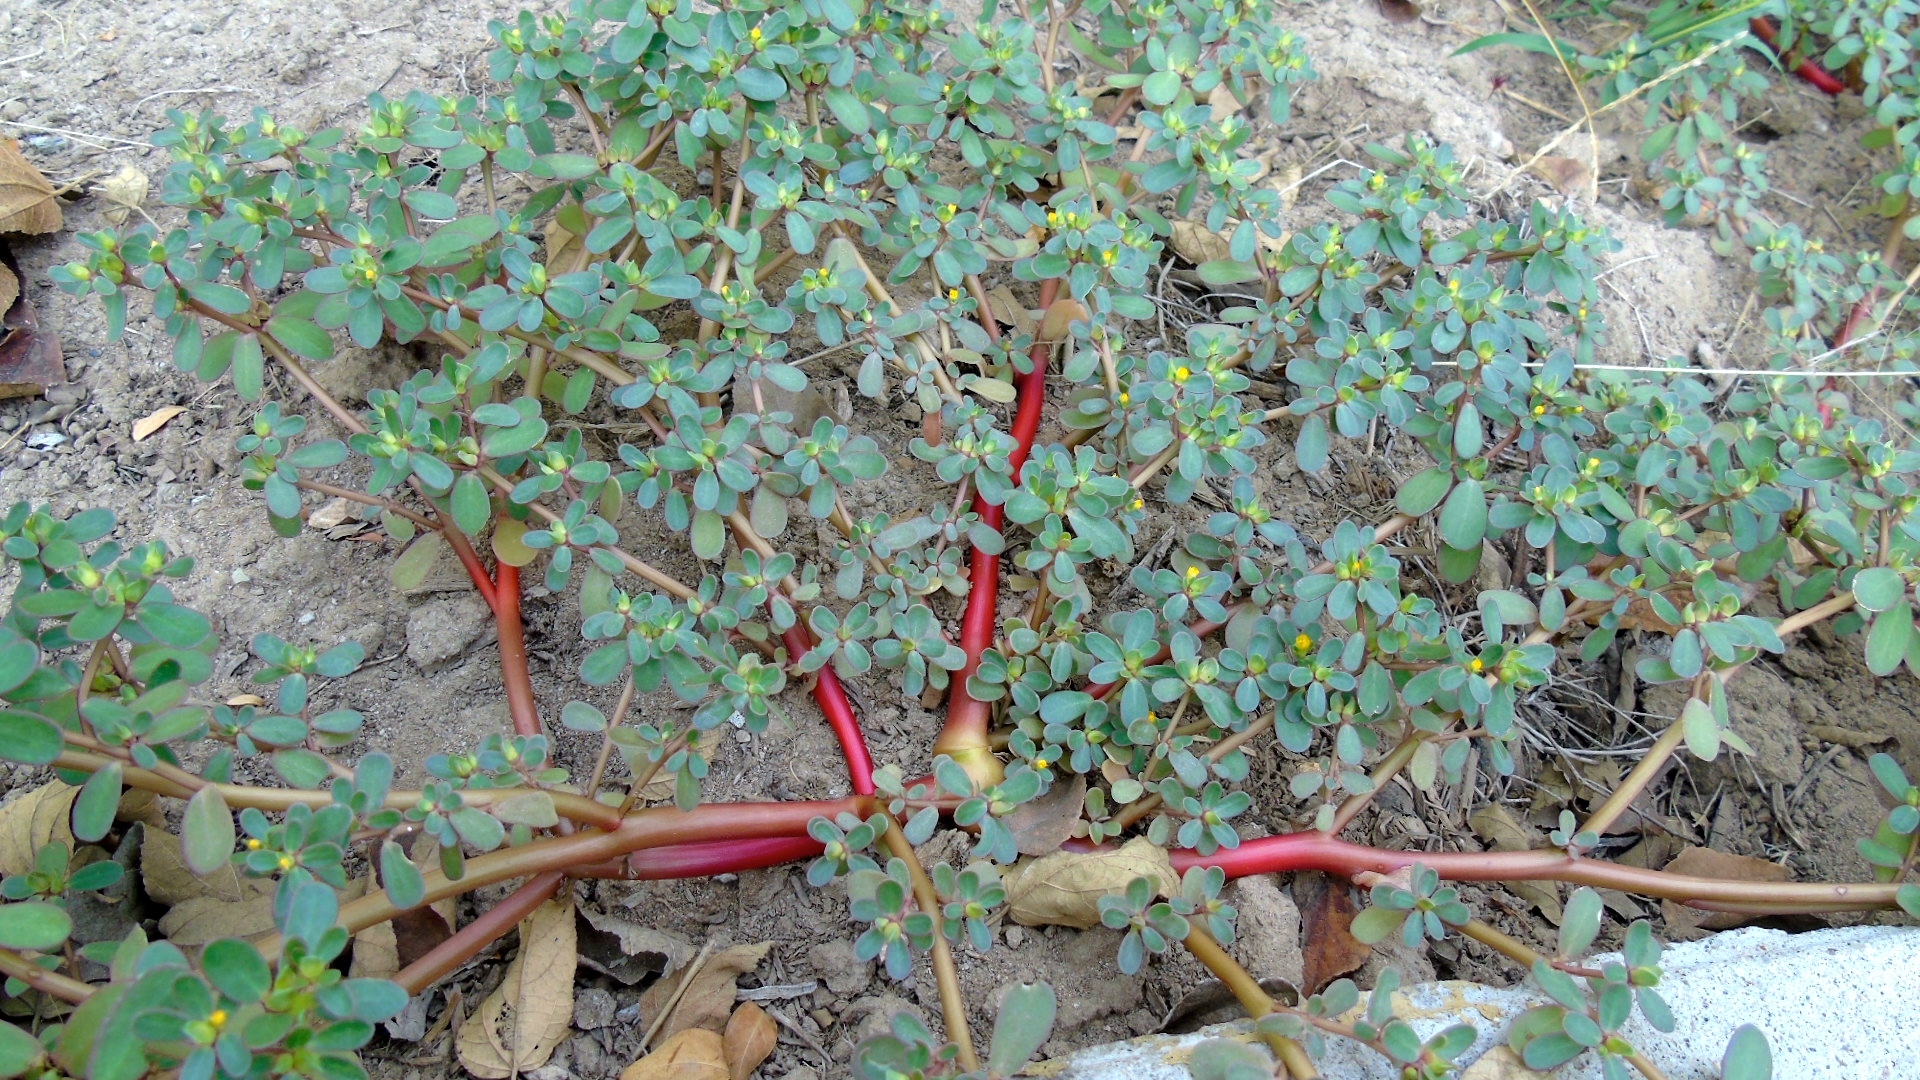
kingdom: Plantae
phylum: Tracheophyta
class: Magnoliopsida
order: Caryophyllales
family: Portulacaceae
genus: Portulaca
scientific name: Portulaca oleracea
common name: Common purslane
